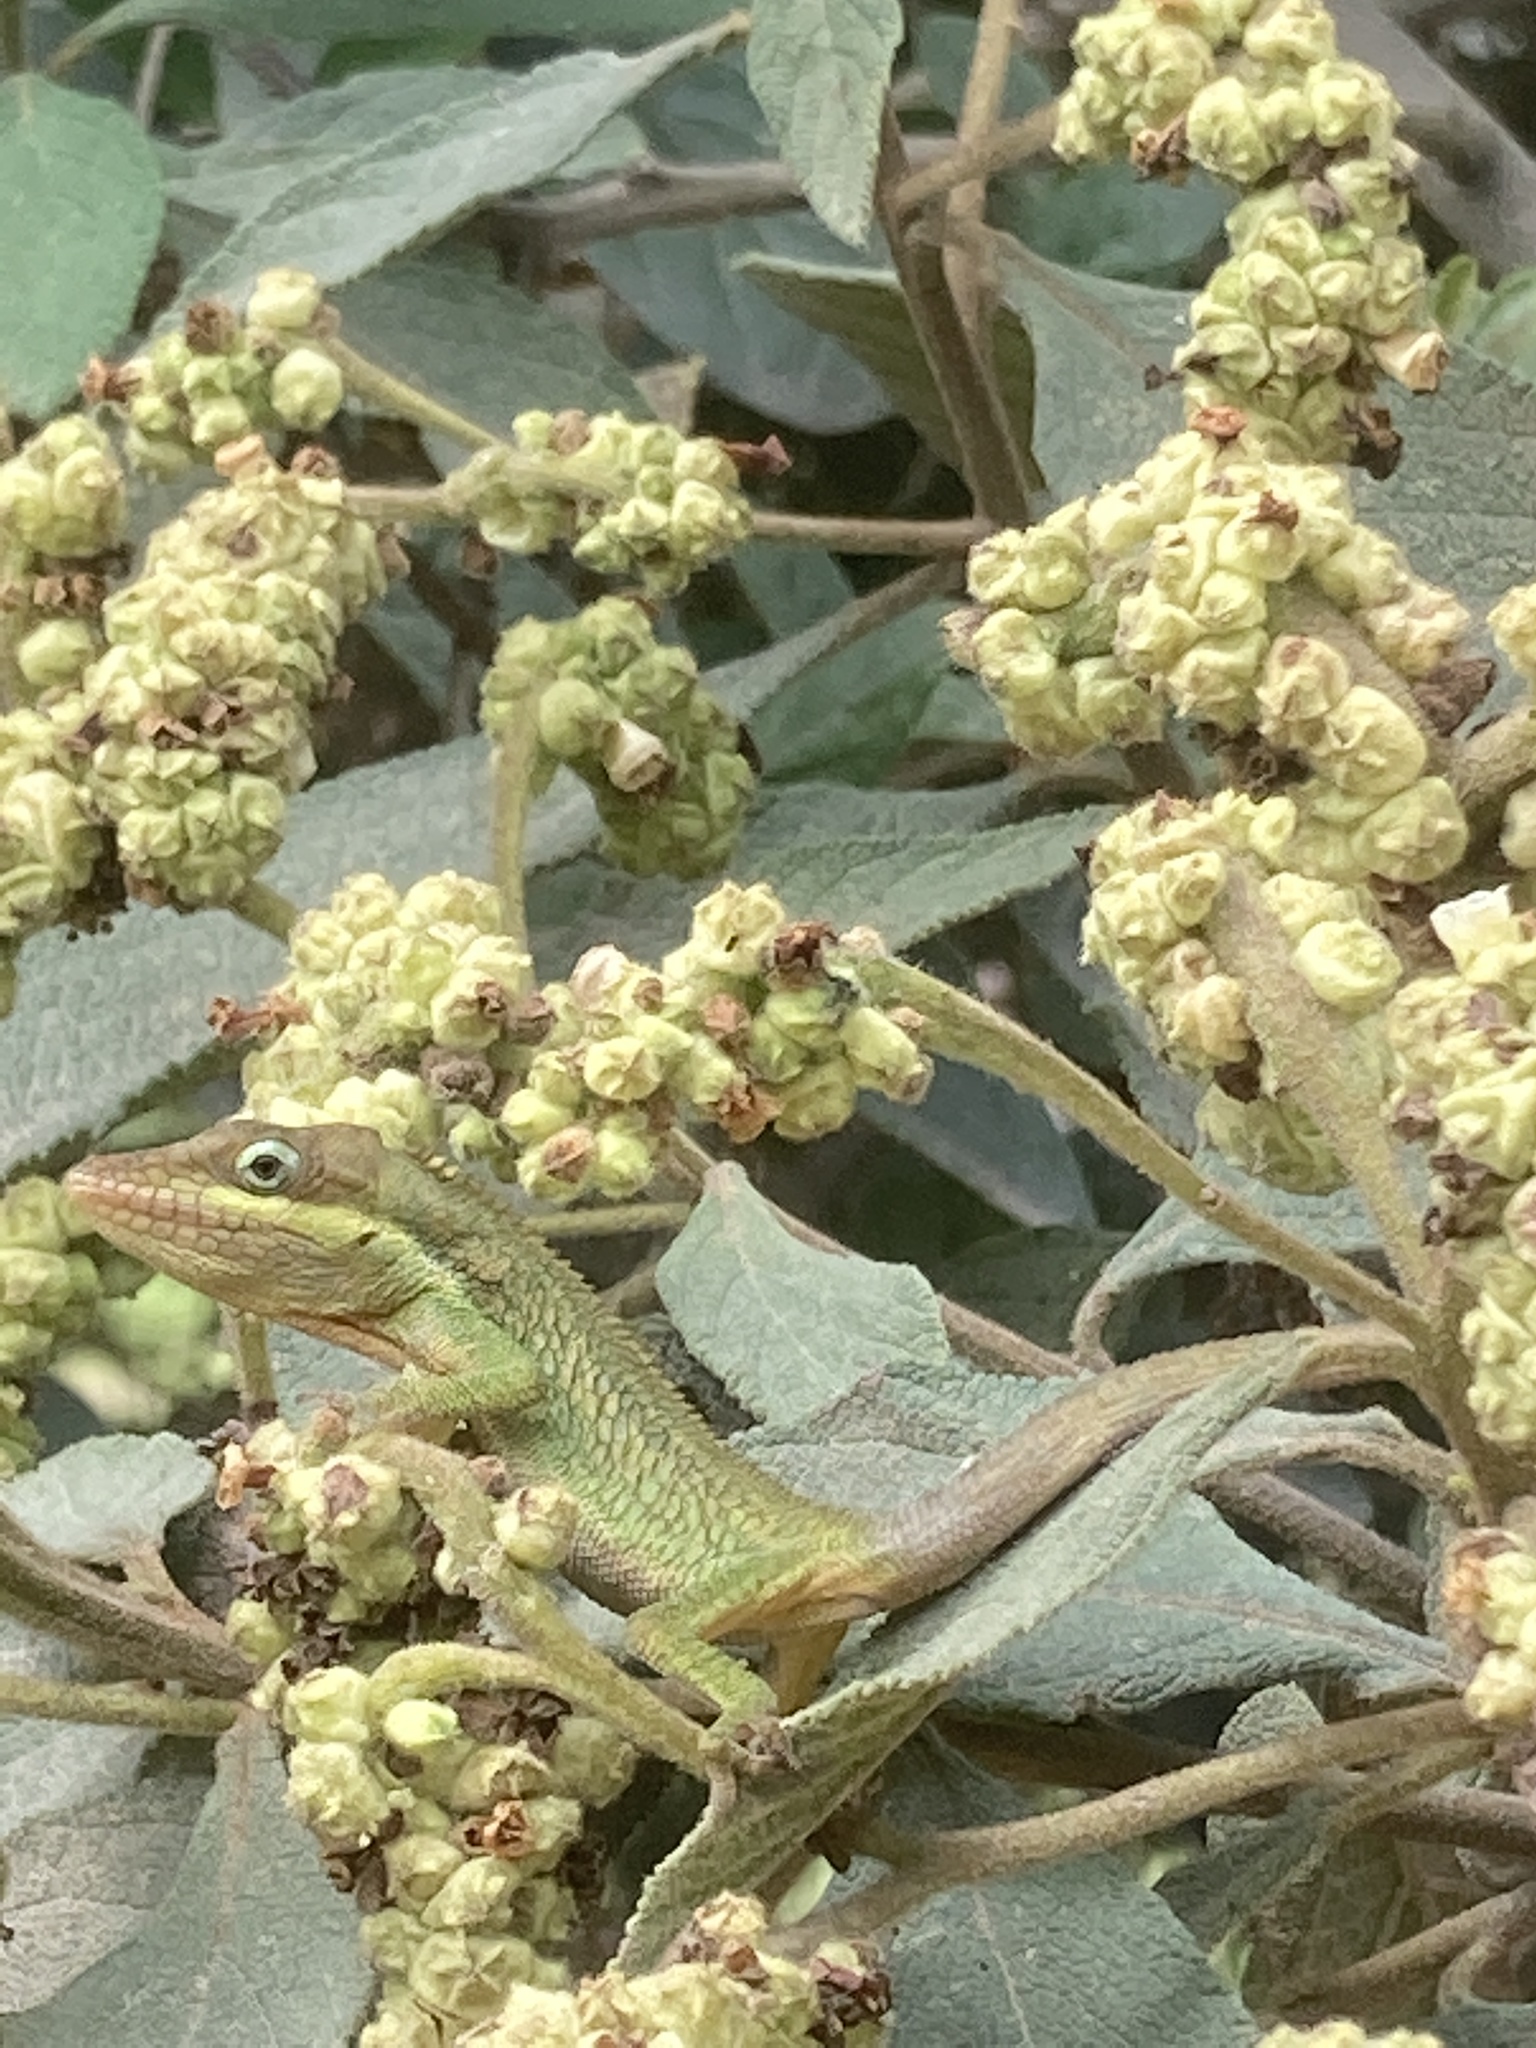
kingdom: Animalia
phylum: Chordata
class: Squamata
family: Dactyloidae
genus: Anolis
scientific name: Anolis heterodermus
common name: Flat andes anole
